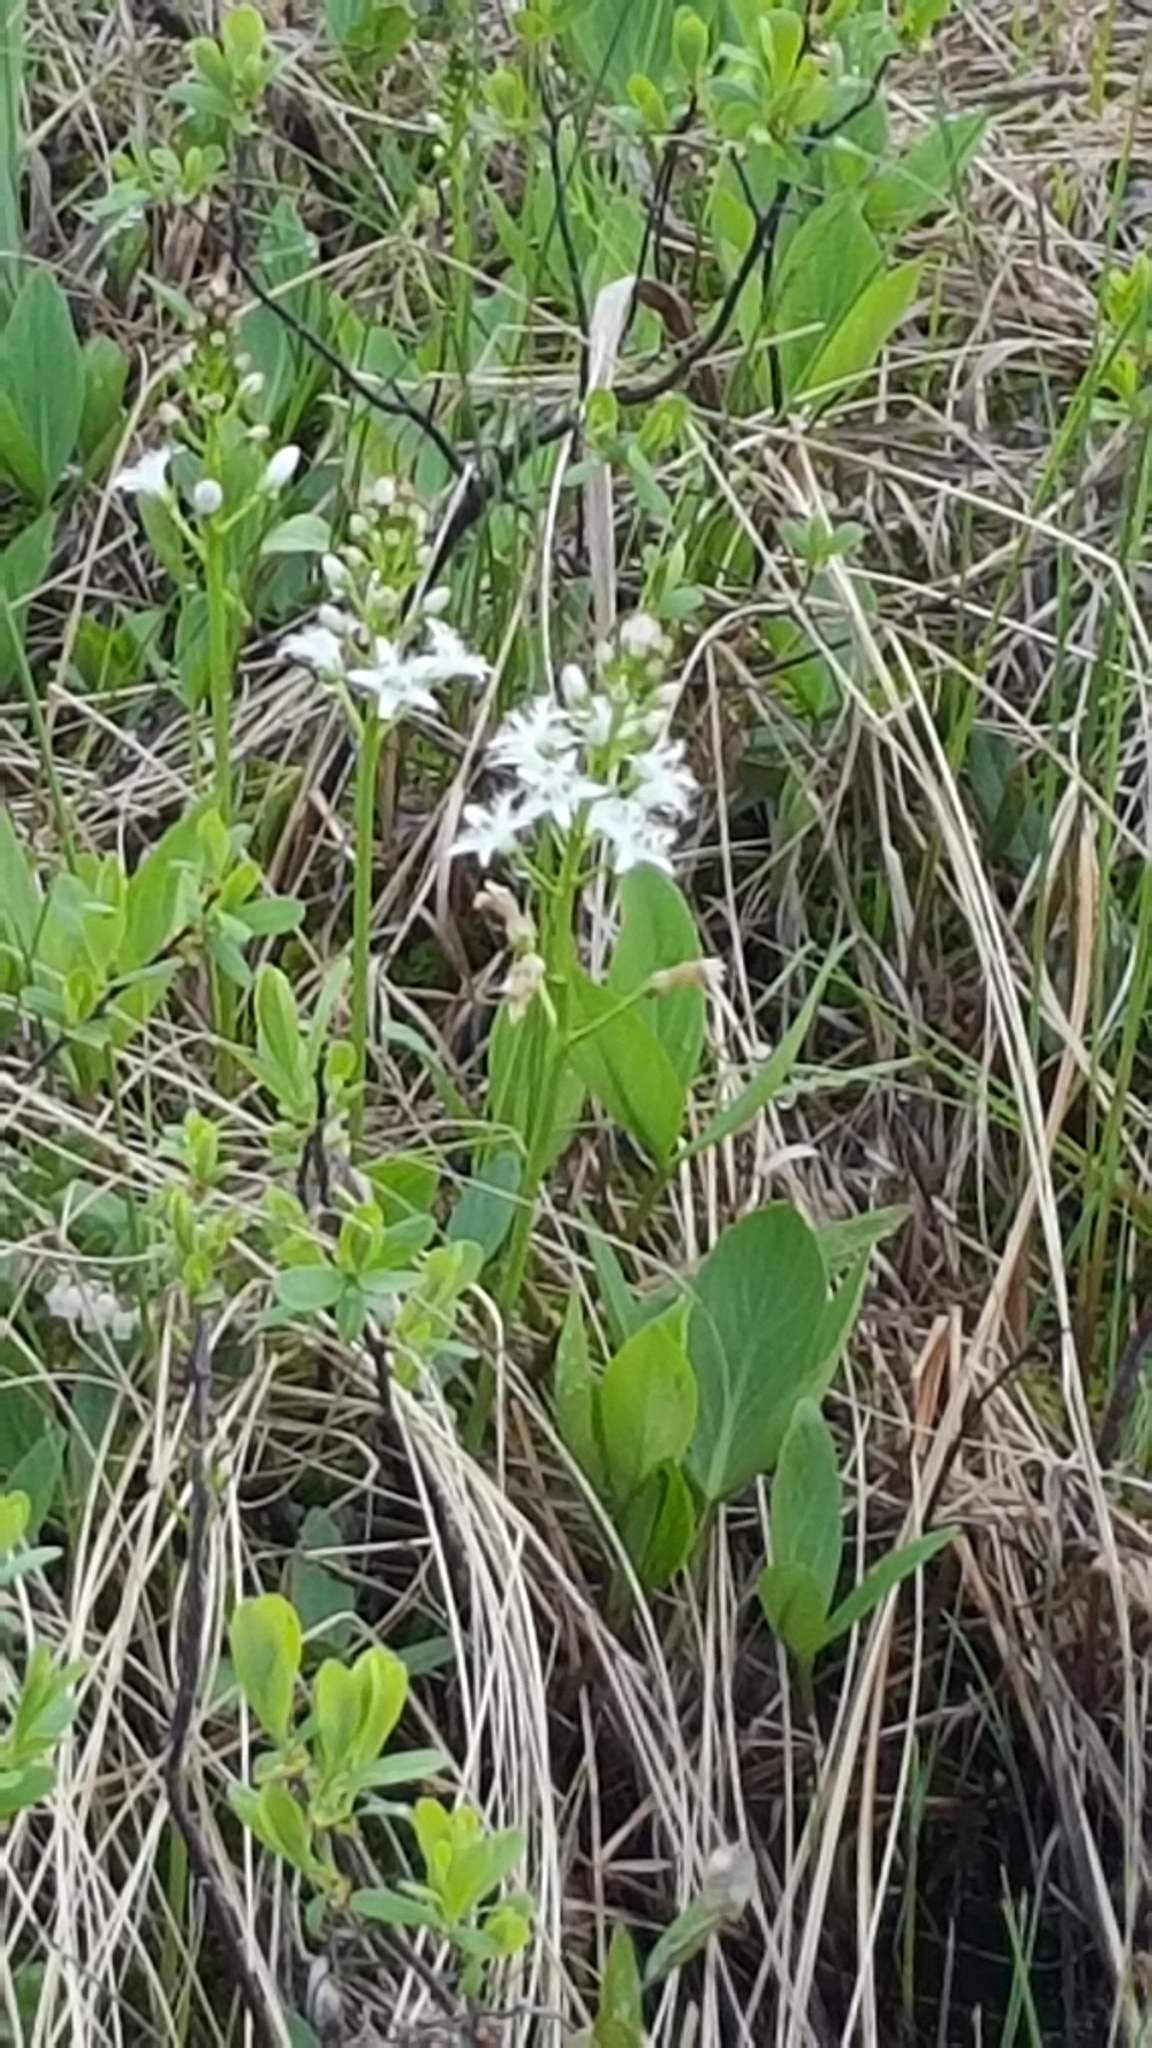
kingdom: Plantae
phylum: Tracheophyta
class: Magnoliopsida
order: Asterales
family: Menyanthaceae
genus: Menyanthes
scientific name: Menyanthes trifoliata
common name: Bogbean
